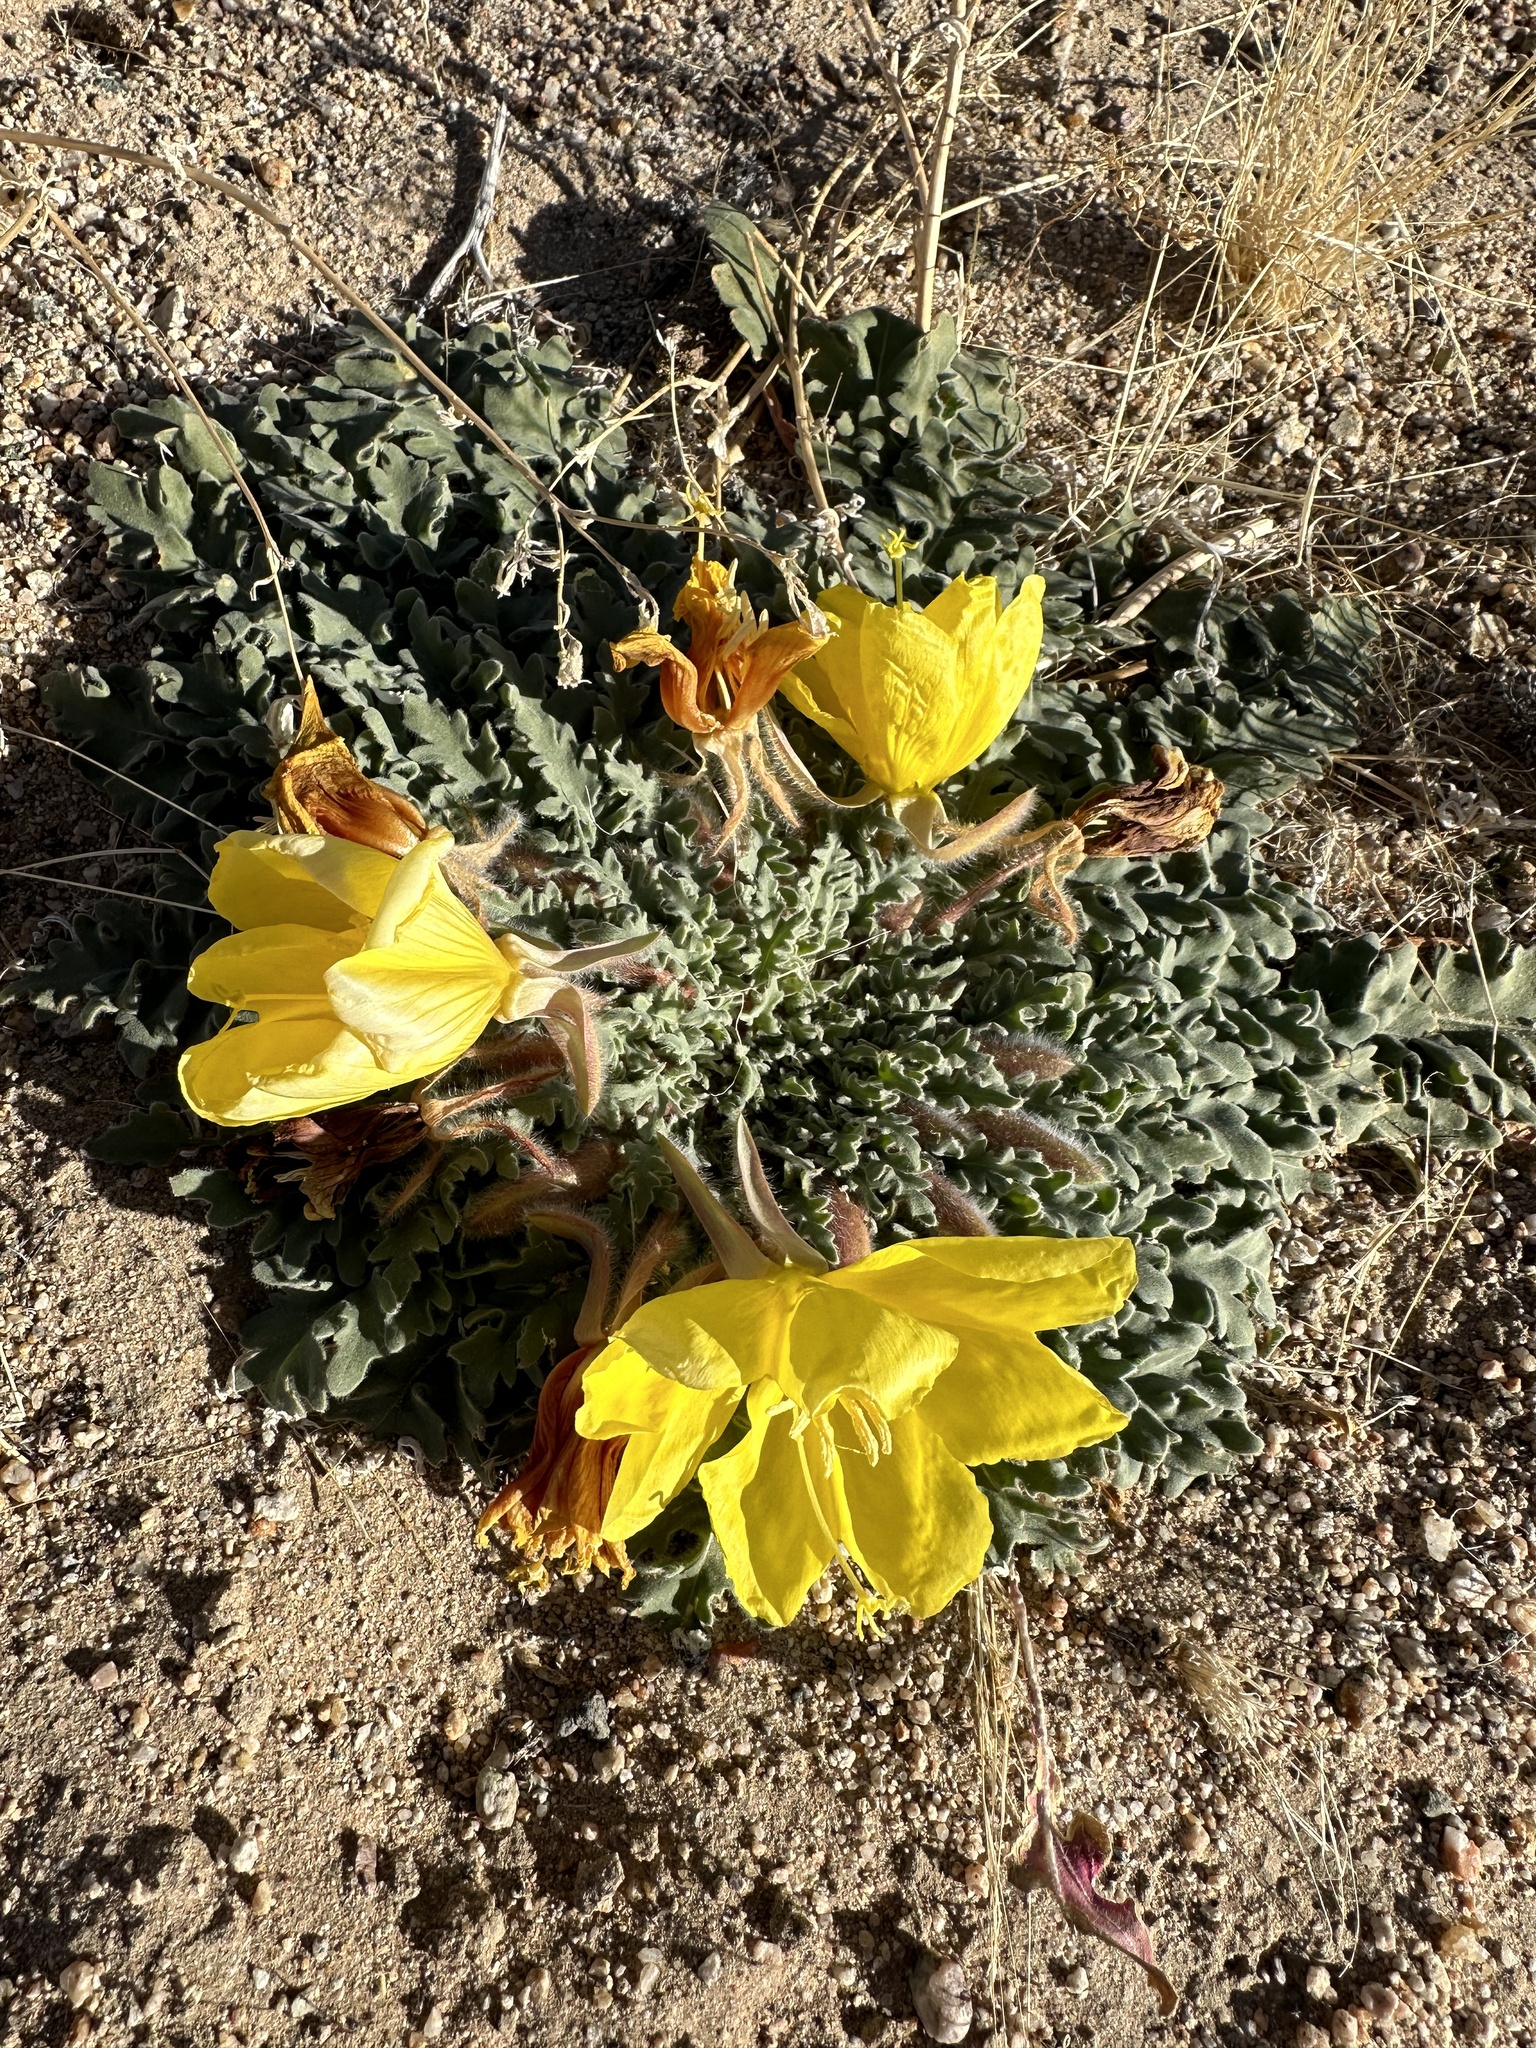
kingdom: Plantae
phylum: Tracheophyta
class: Magnoliopsida
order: Myrtales
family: Onagraceae
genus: Oenothera
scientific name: Oenothera primiveris
